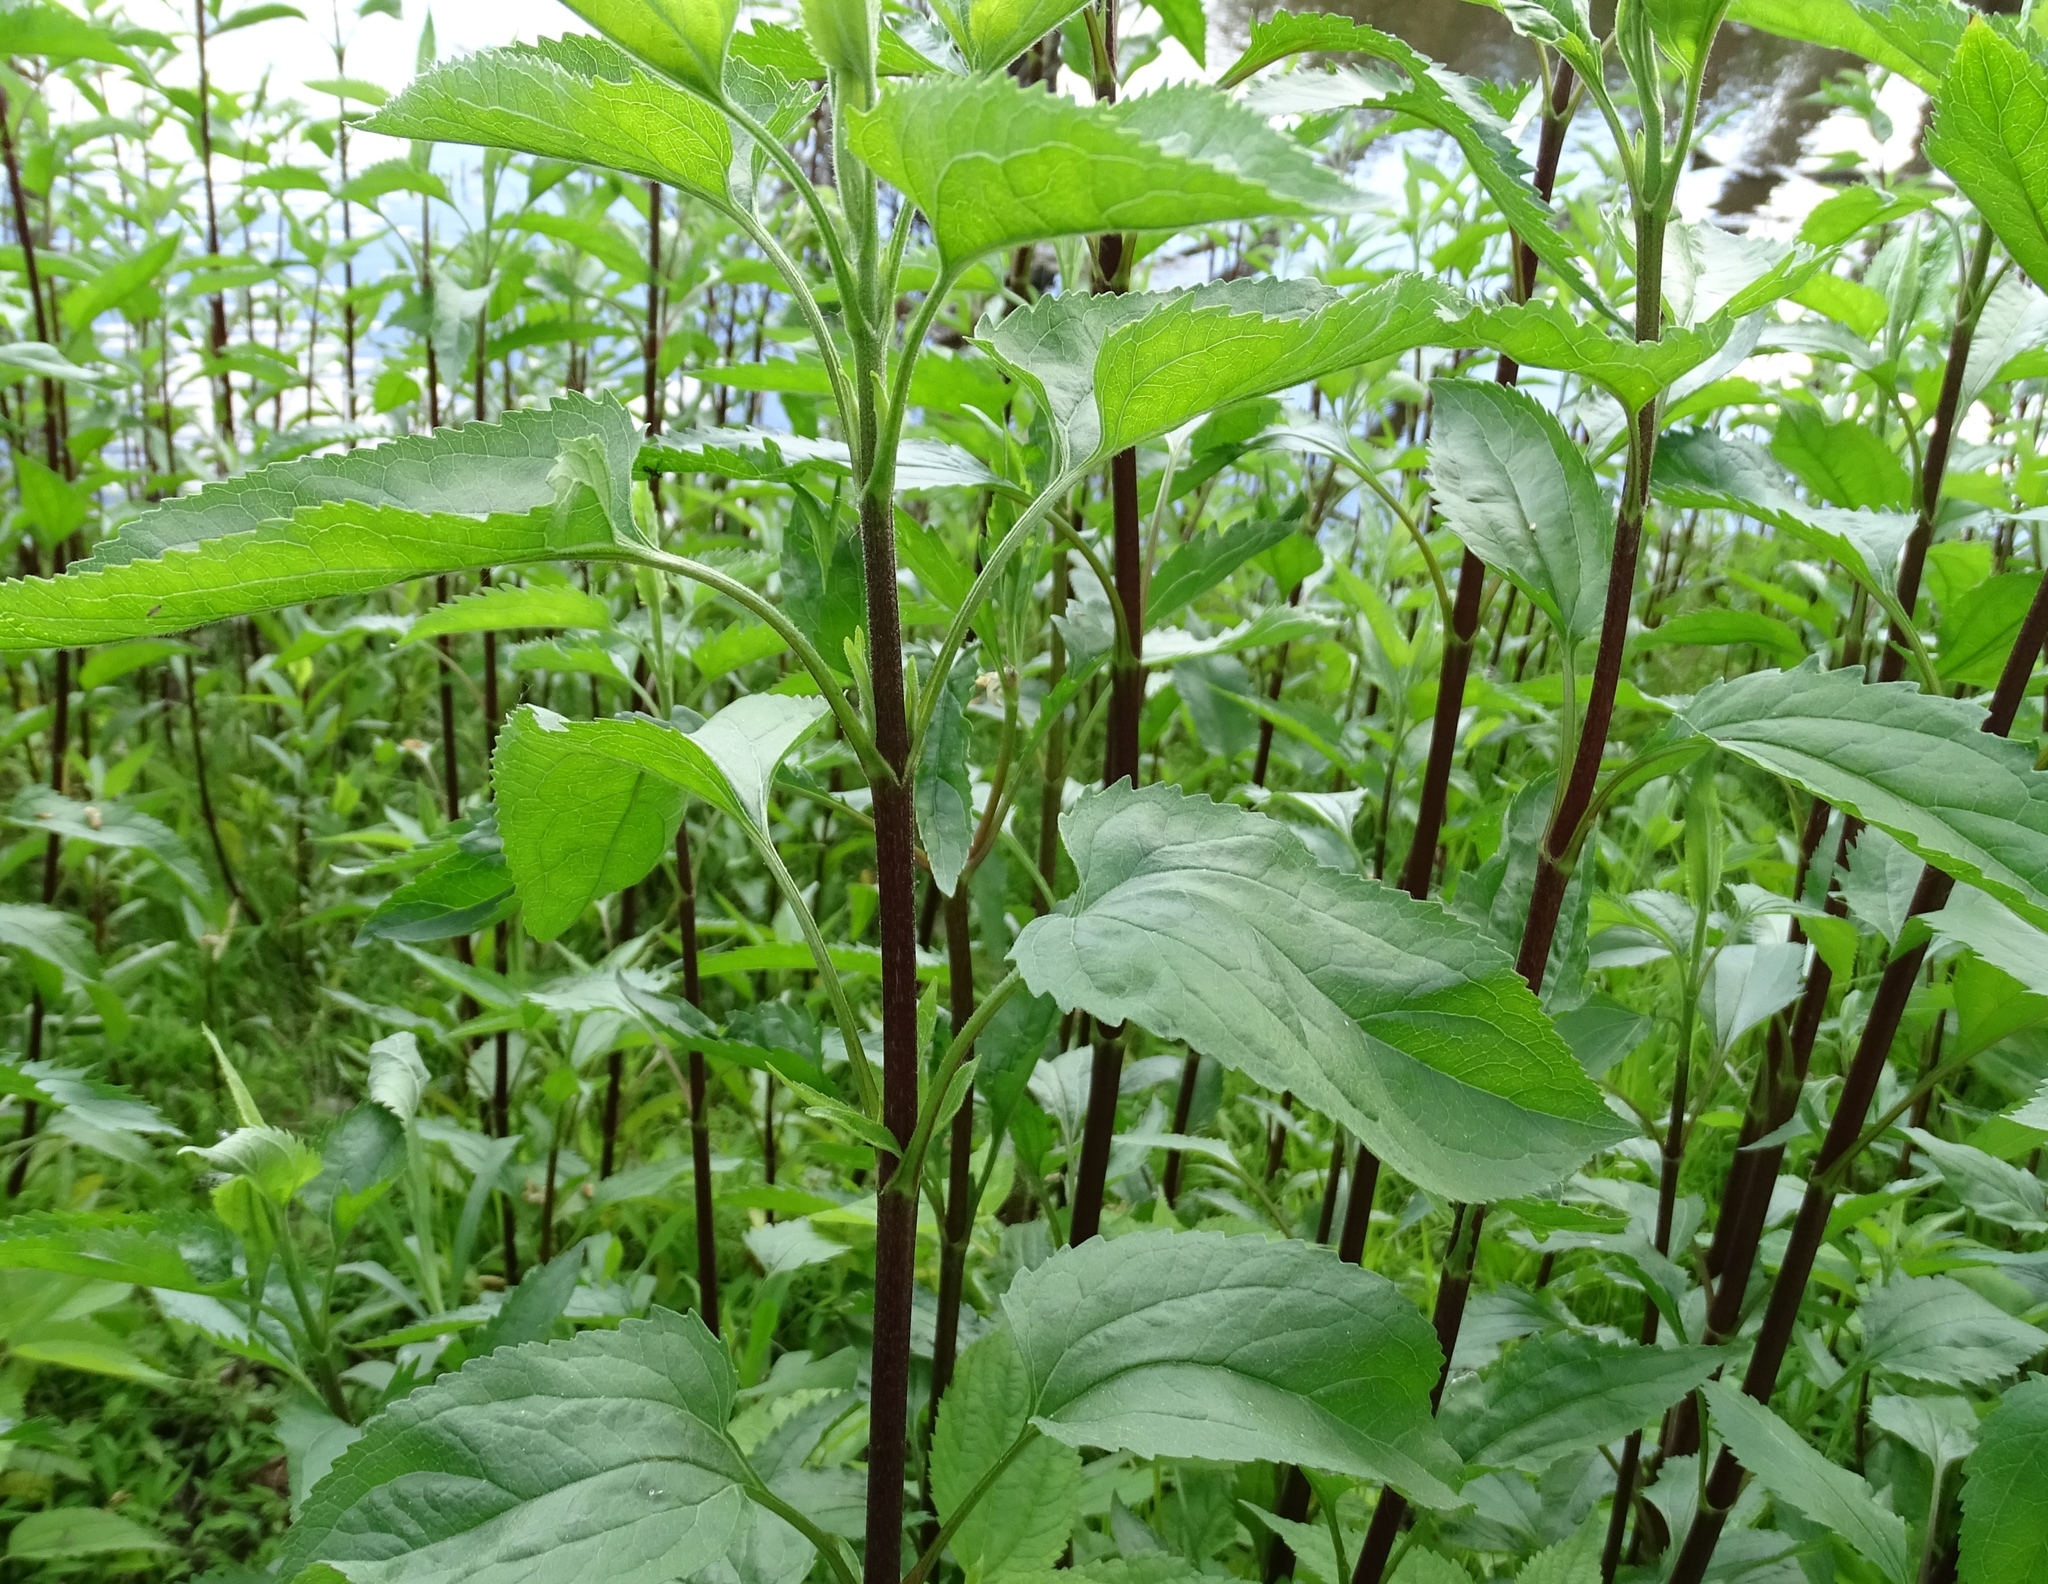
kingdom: Plantae
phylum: Tracheophyta
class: Magnoliopsida
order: Asterales
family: Asteraceae
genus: Eupatorium
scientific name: Eupatorium serotinum
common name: Late boneset
